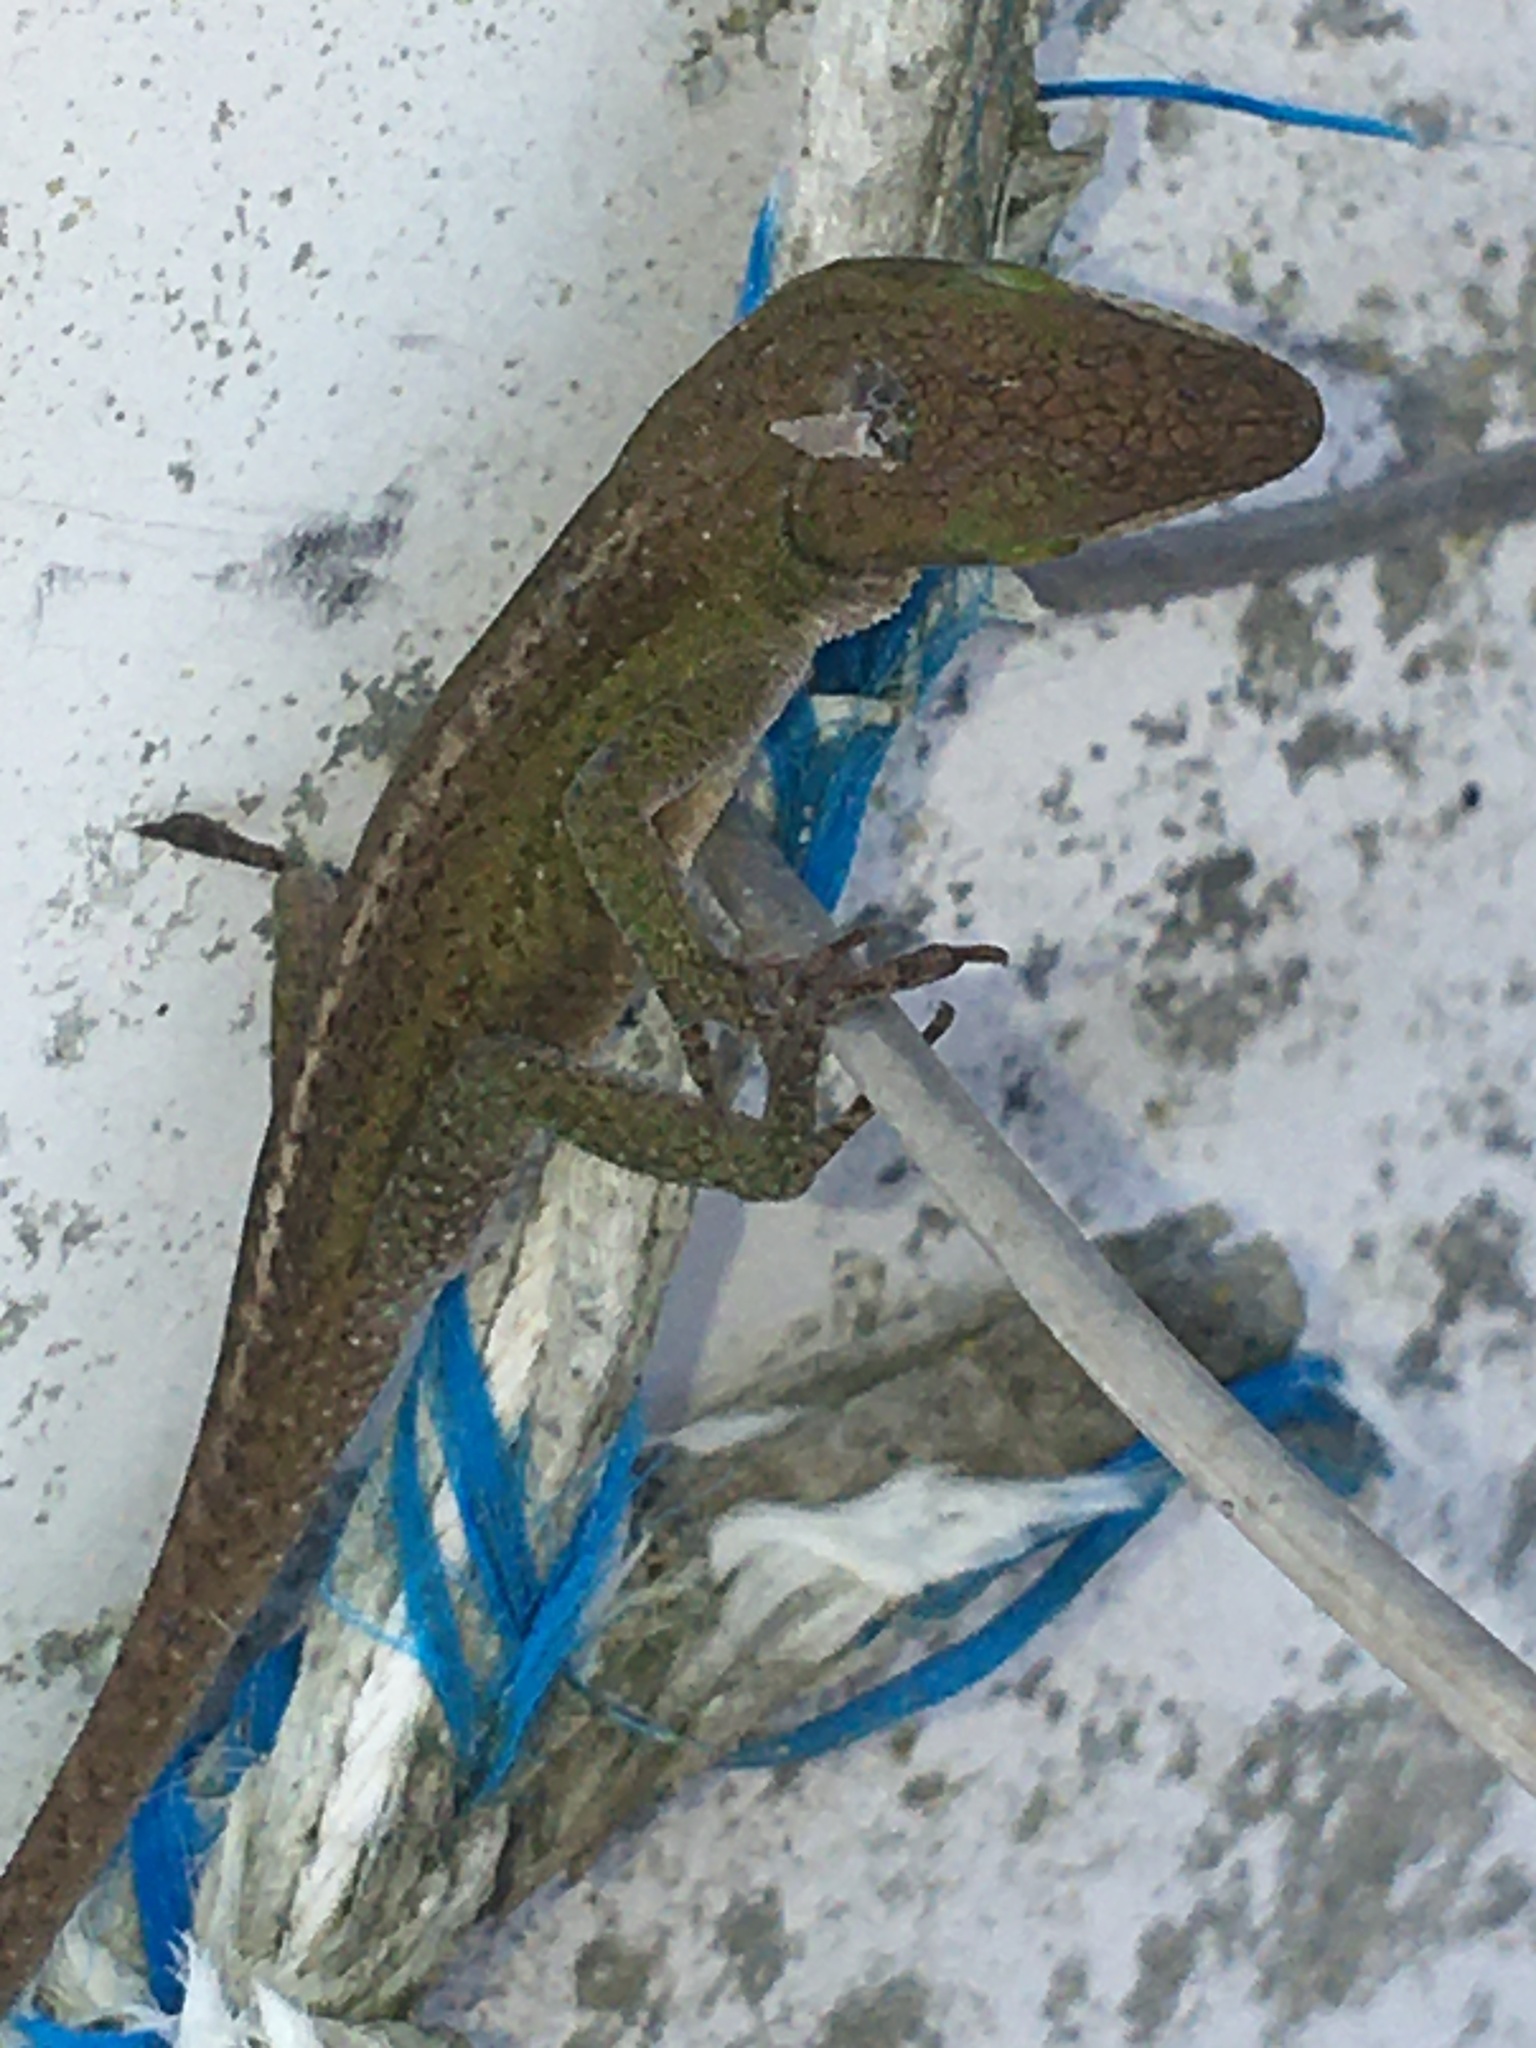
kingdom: Animalia
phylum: Chordata
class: Squamata
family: Dactyloidae
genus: Anolis
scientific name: Anolis carolinensis
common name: Green anole
